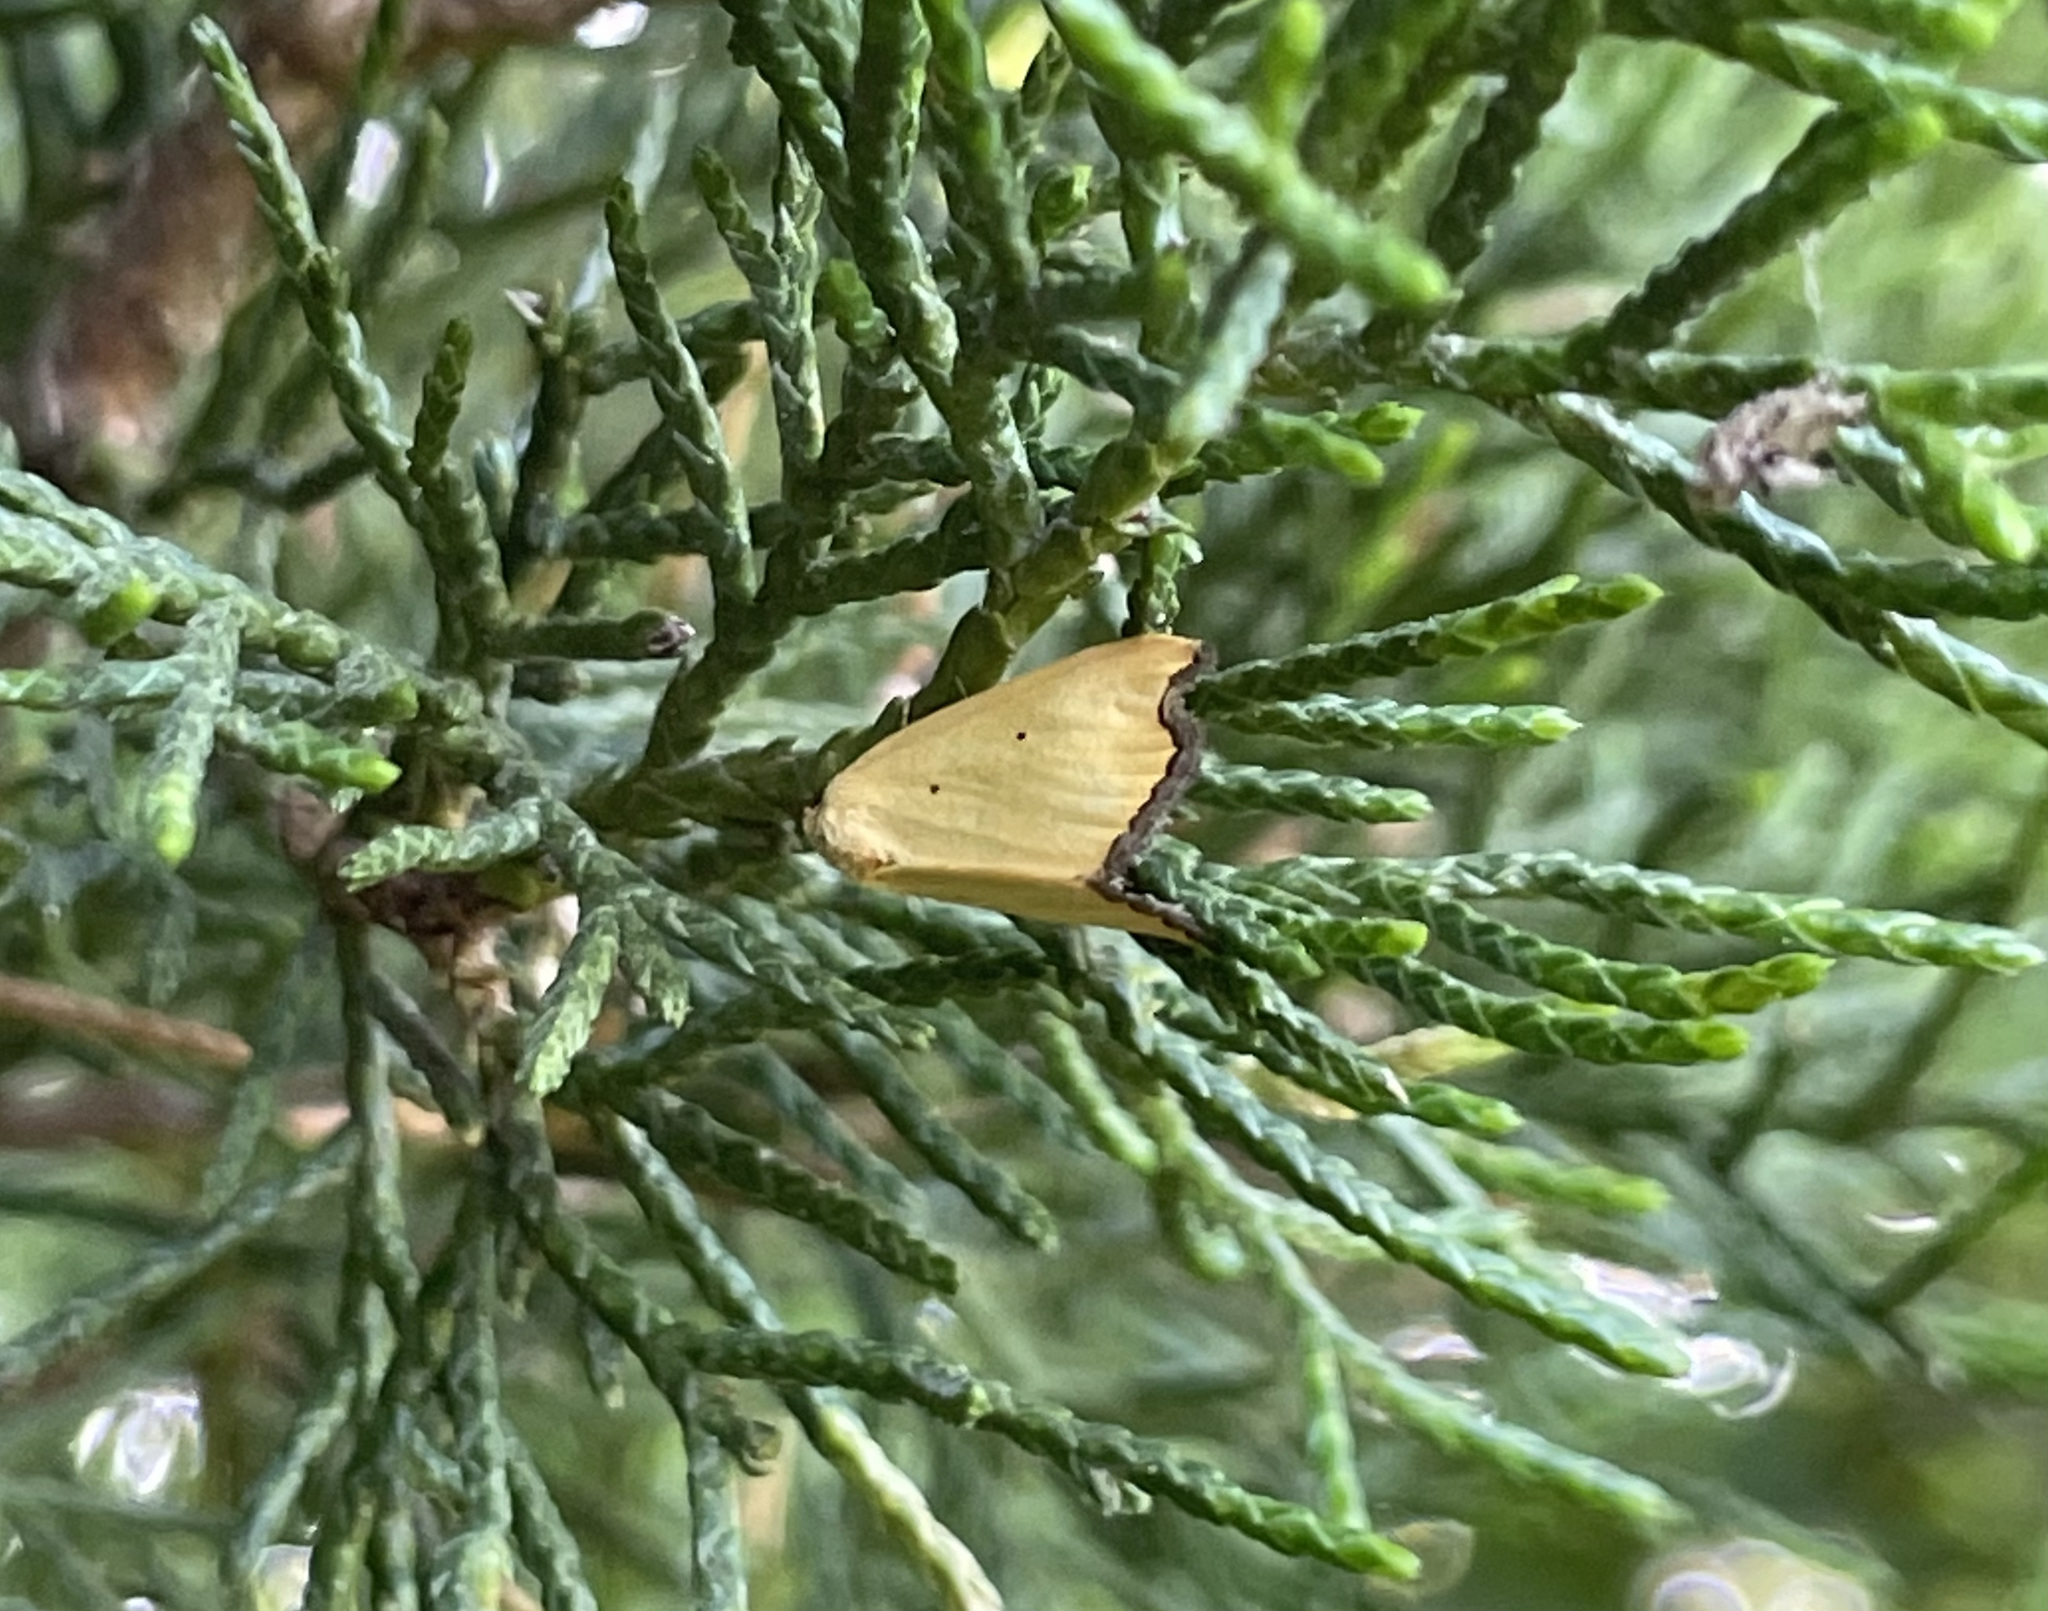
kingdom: Animalia
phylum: Arthropoda
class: Insecta
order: Lepidoptera
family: Noctuidae
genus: Marimatha
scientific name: Marimatha nigrofimbria
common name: Black-bordered lemon moth
